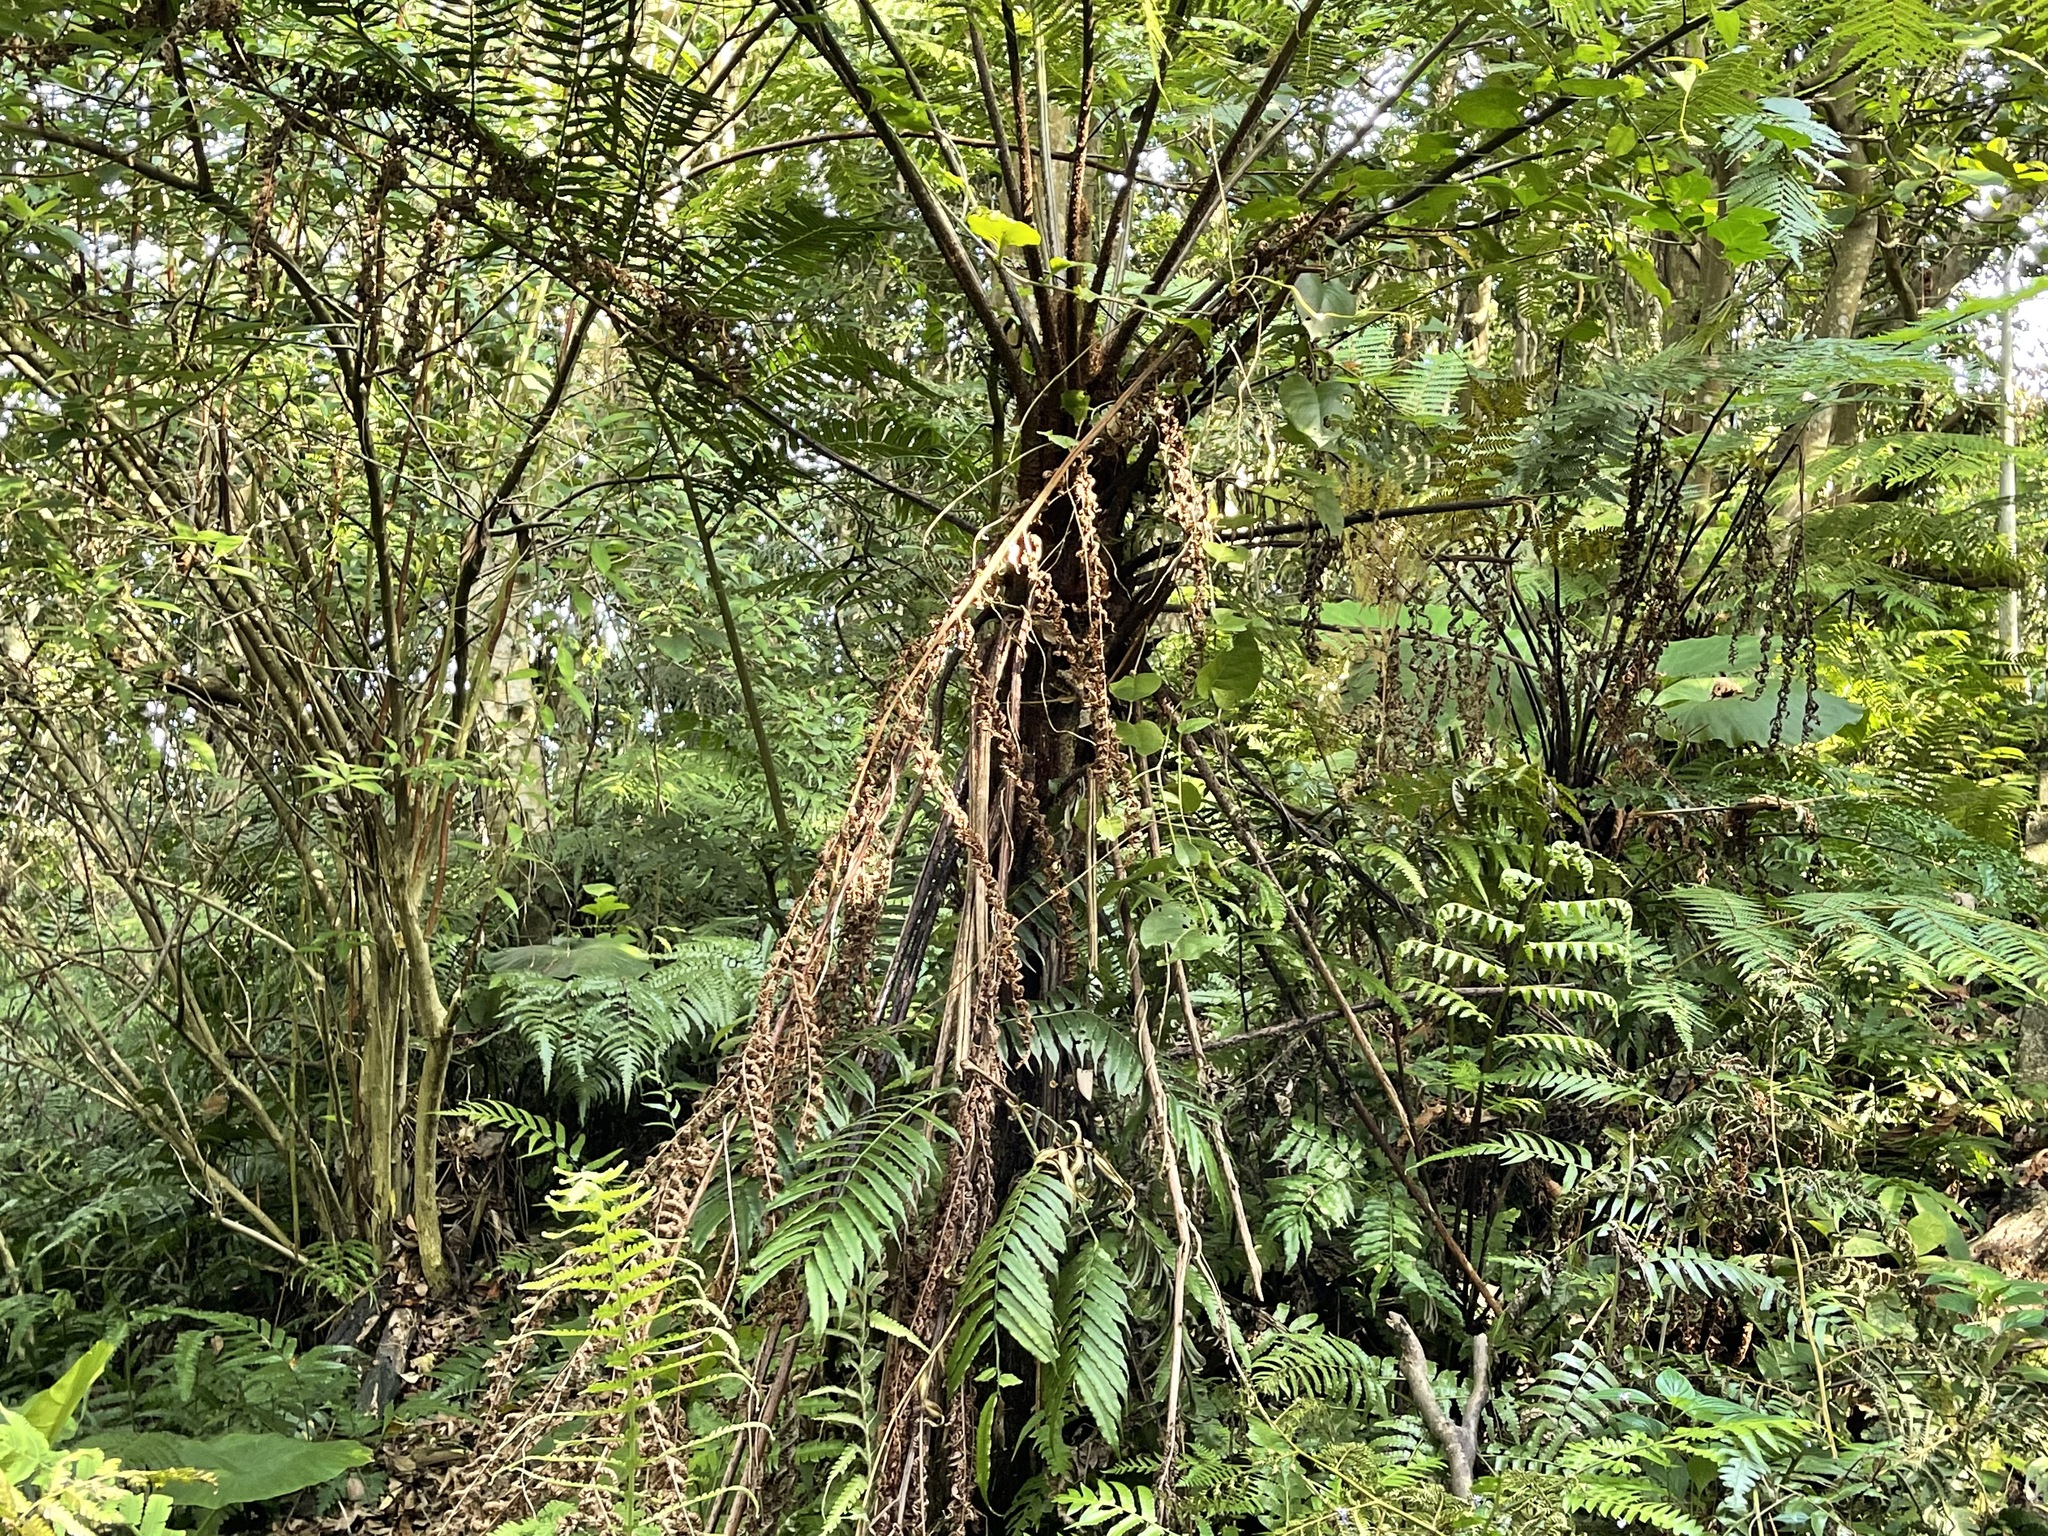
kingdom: Plantae
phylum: Tracheophyta
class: Polypodiopsida
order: Cyatheales
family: Cyatheaceae
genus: Alsophila
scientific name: Alsophila spinulosa
